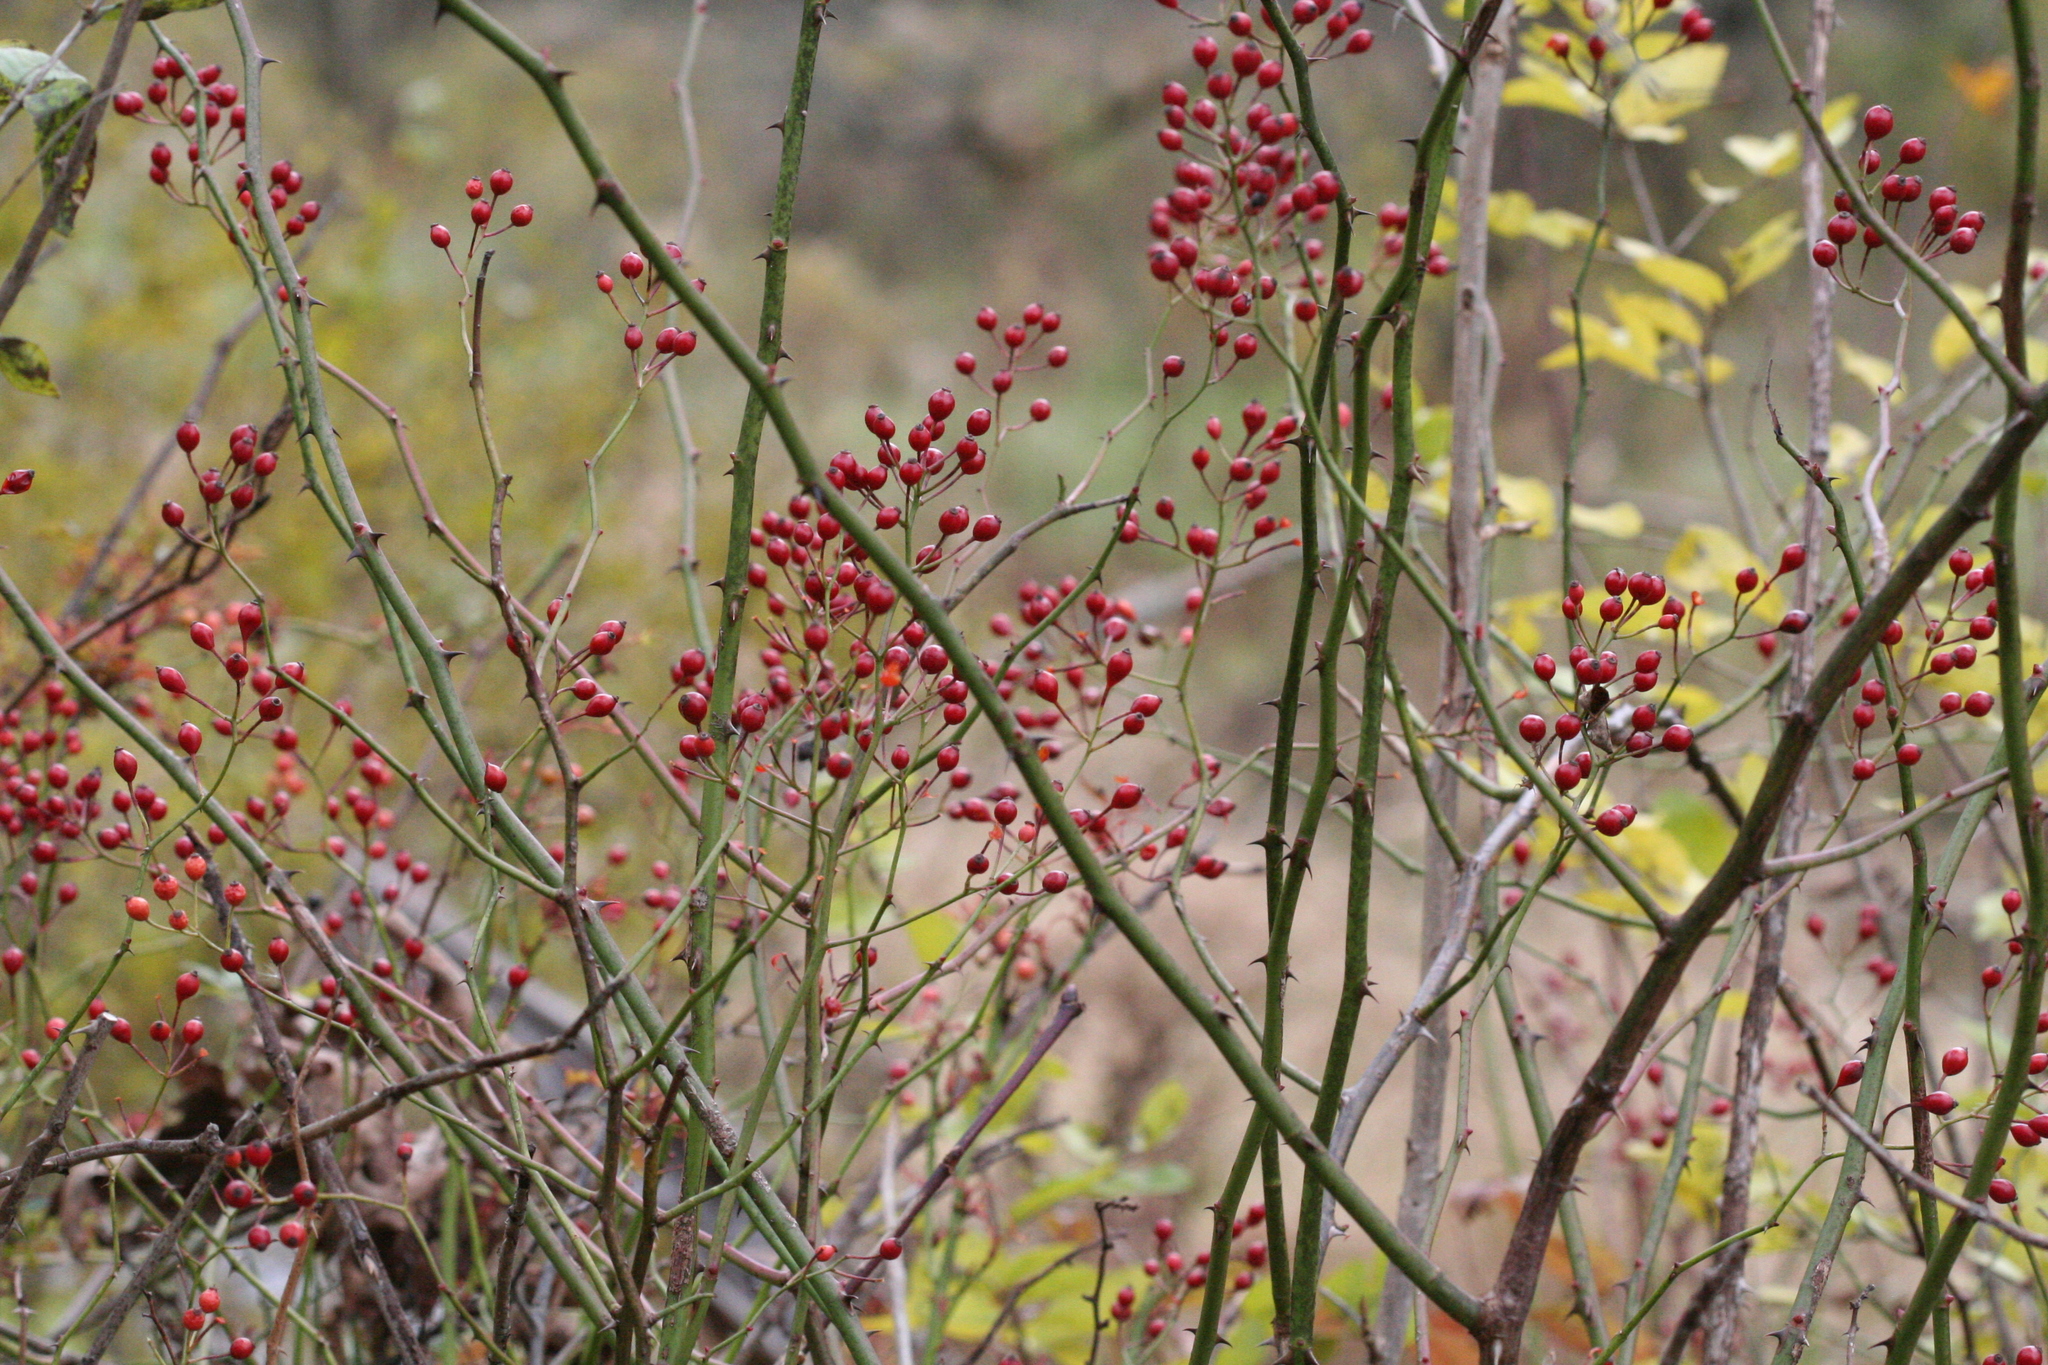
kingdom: Plantae
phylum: Tracheophyta
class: Magnoliopsida
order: Rosales
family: Rosaceae
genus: Rosa
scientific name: Rosa multiflora
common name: Multiflora rose
